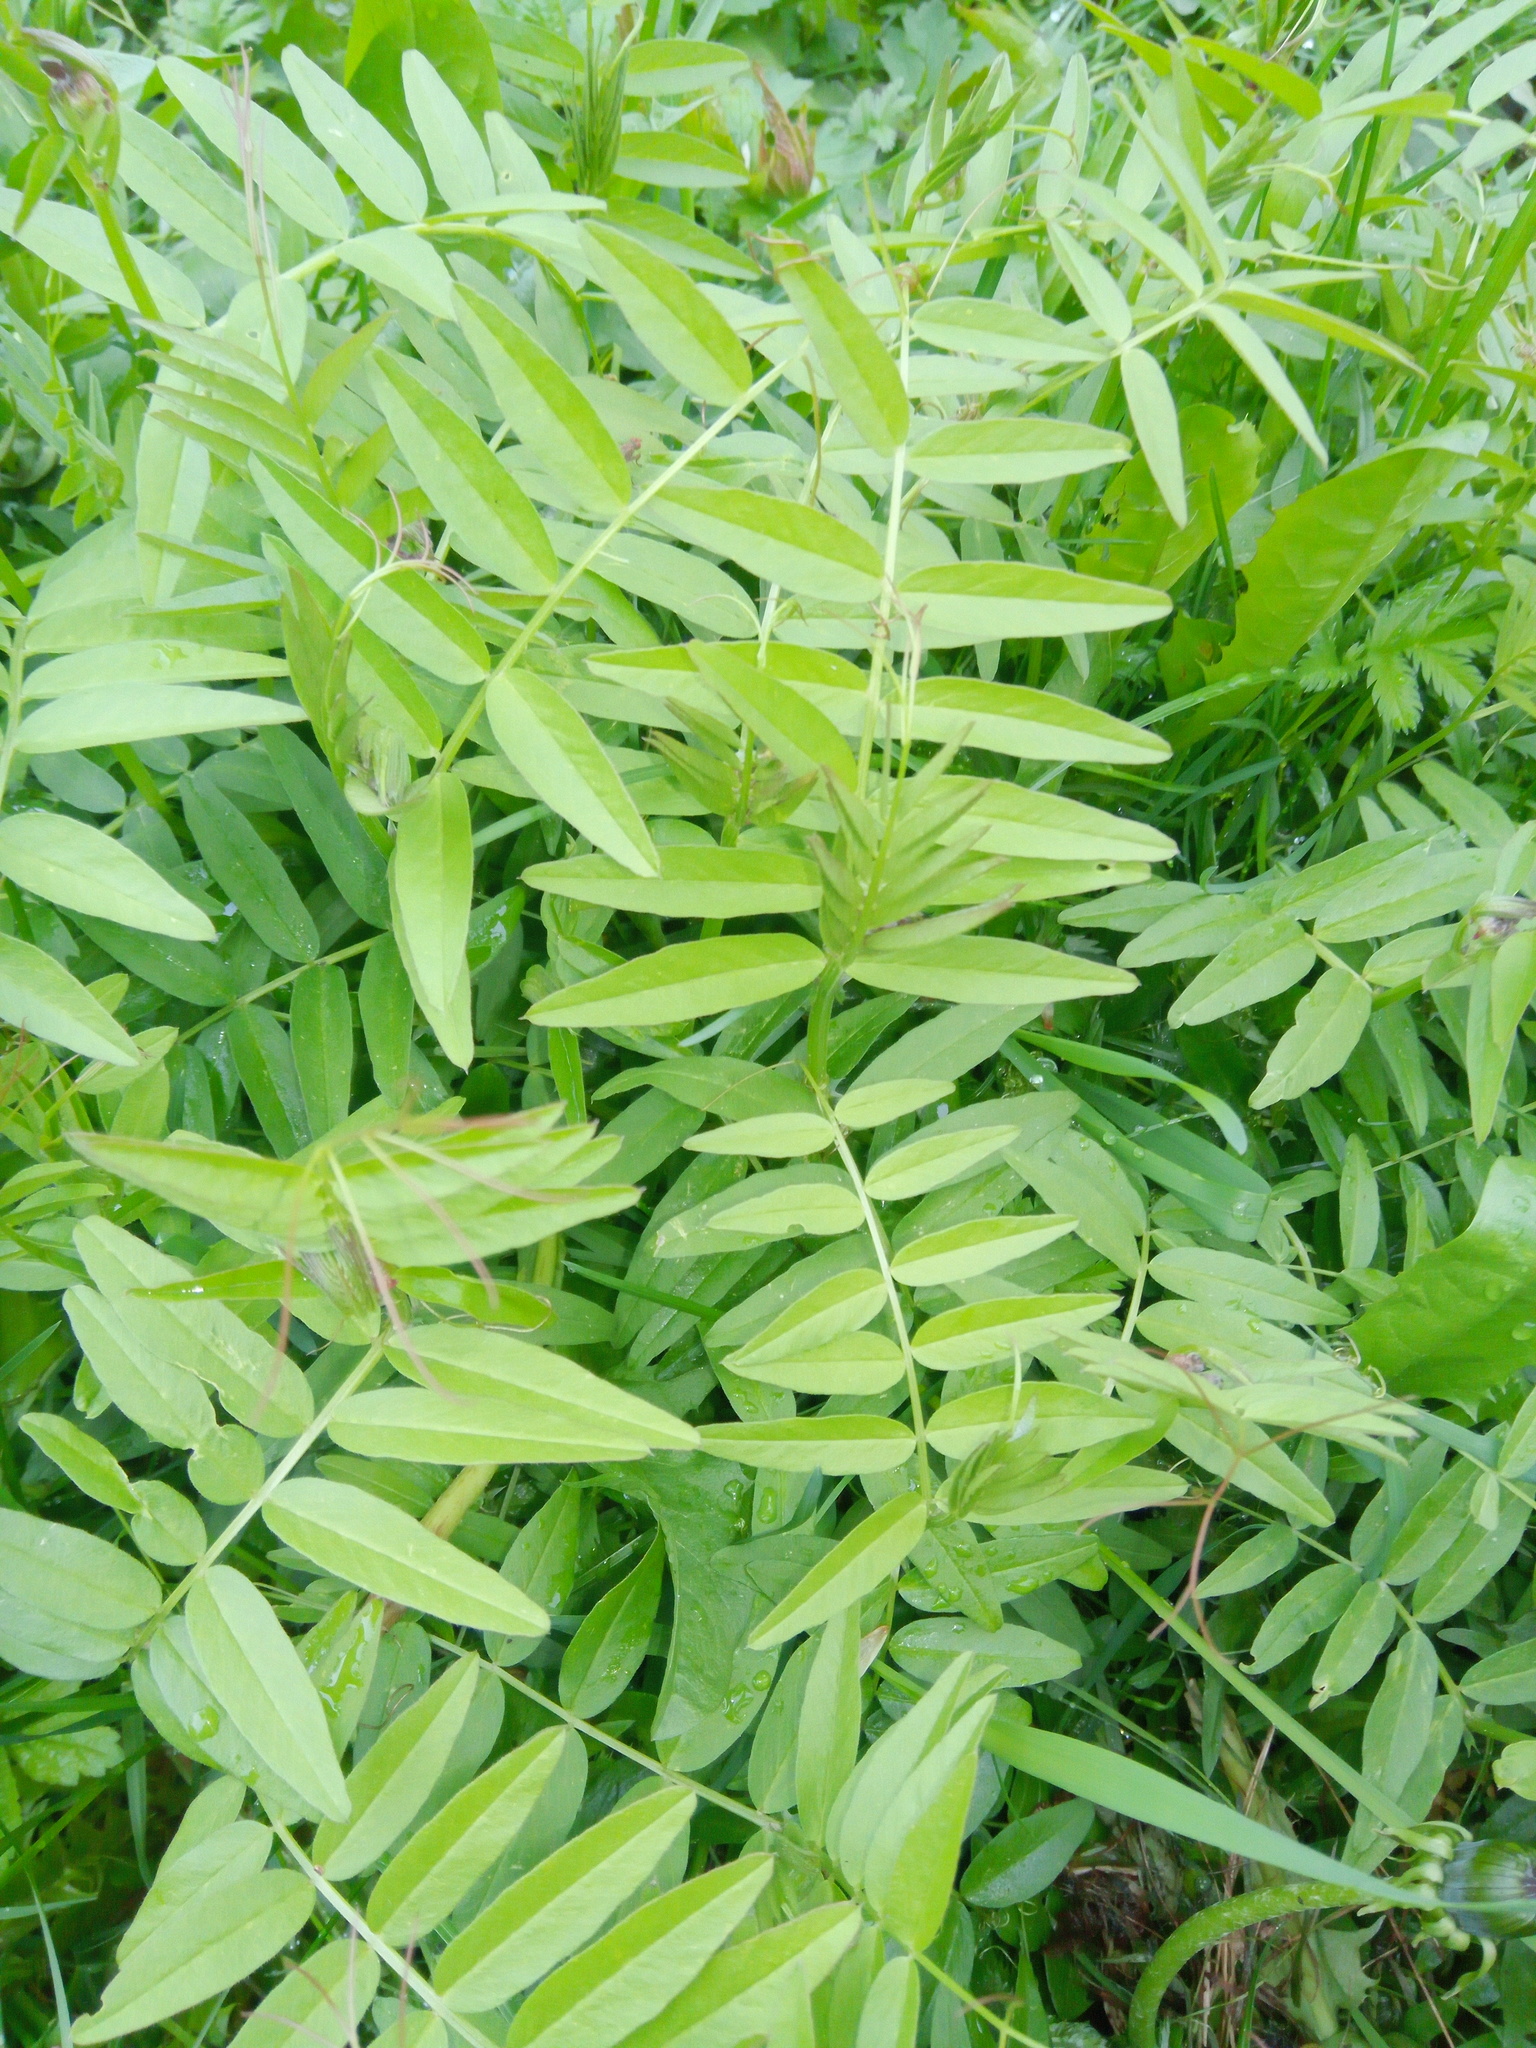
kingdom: Plantae
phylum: Tracheophyta
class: Magnoliopsida
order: Fabales
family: Fabaceae
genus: Vicia
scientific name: Vicia sepium
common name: Bush vetch
